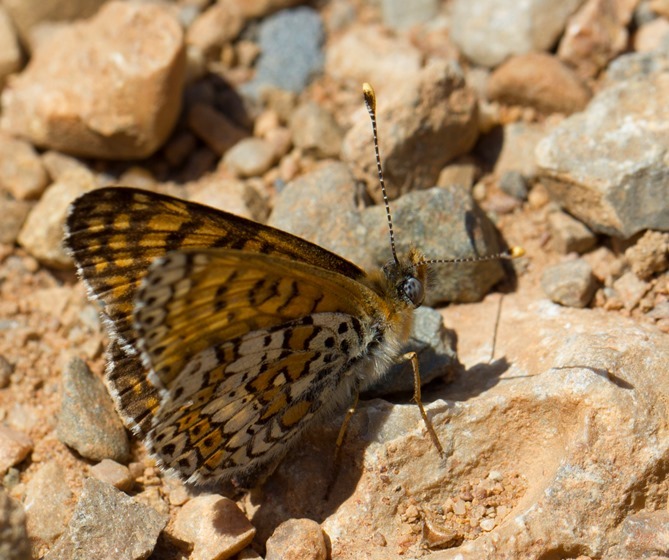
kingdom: Animalia
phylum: Arthropoda
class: Insecta
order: Lepidoptera
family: Nymphalidae
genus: Melitaea
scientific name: Melitaea cinxia
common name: Glanville fritillary
